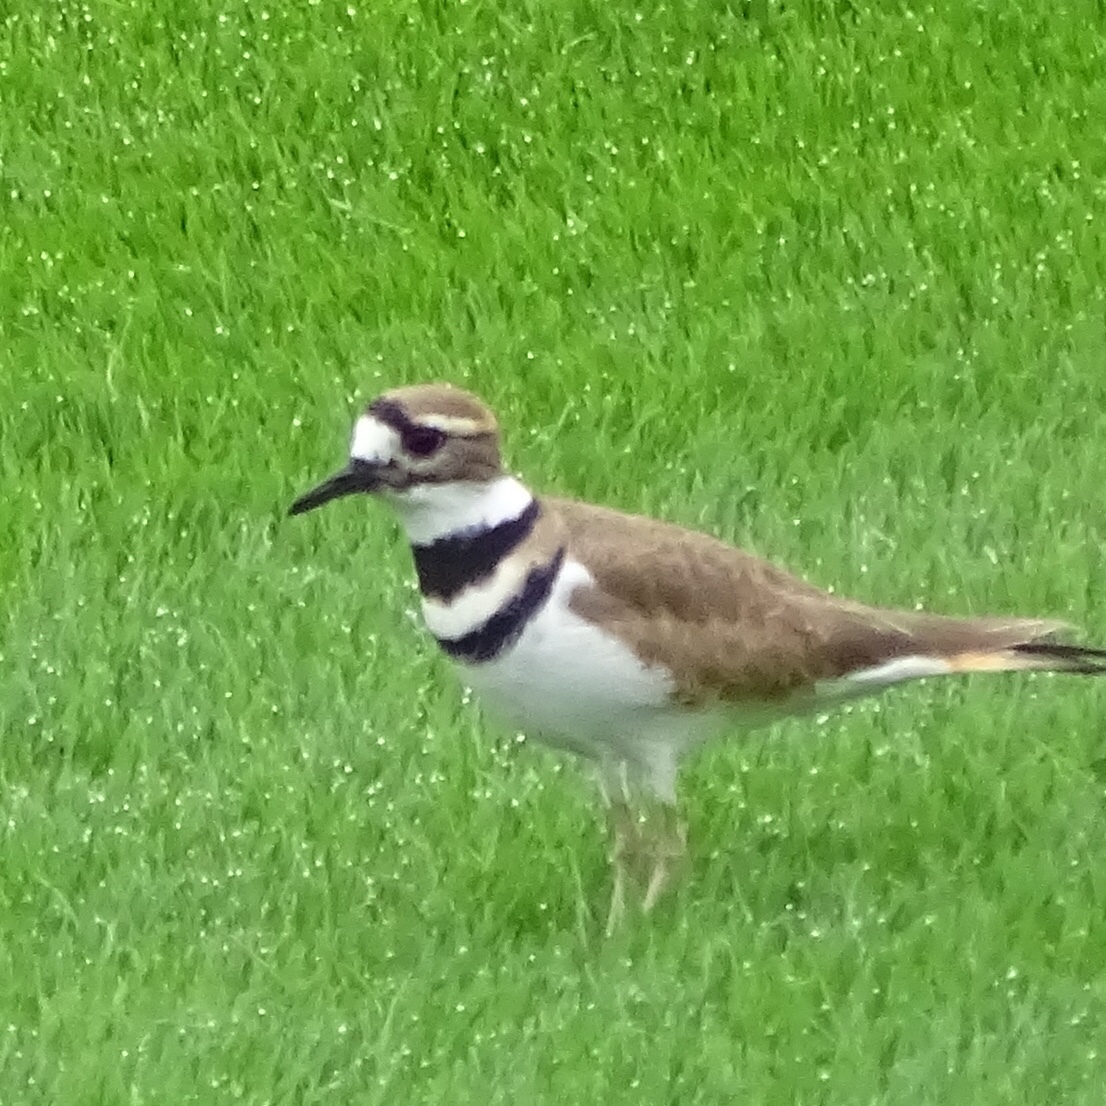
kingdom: Animalia
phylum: Chordata
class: Aves
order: Charadriiformes
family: Charadriidae
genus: Charadrius
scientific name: Charadrius vociferus
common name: Killdeer
